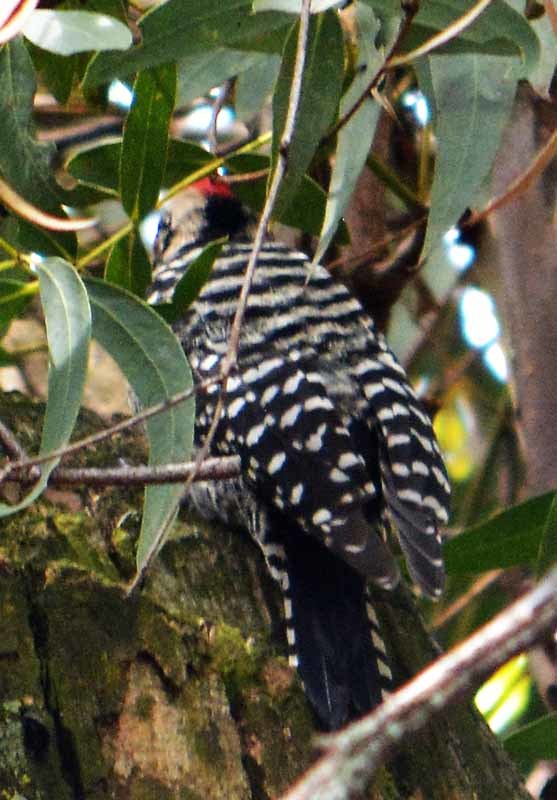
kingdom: Animalia
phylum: Chordata
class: Aves
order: Piciformes
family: Picidae
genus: Dryobates
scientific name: Dryobates scalaris
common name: Ladder-backed woodpecker
